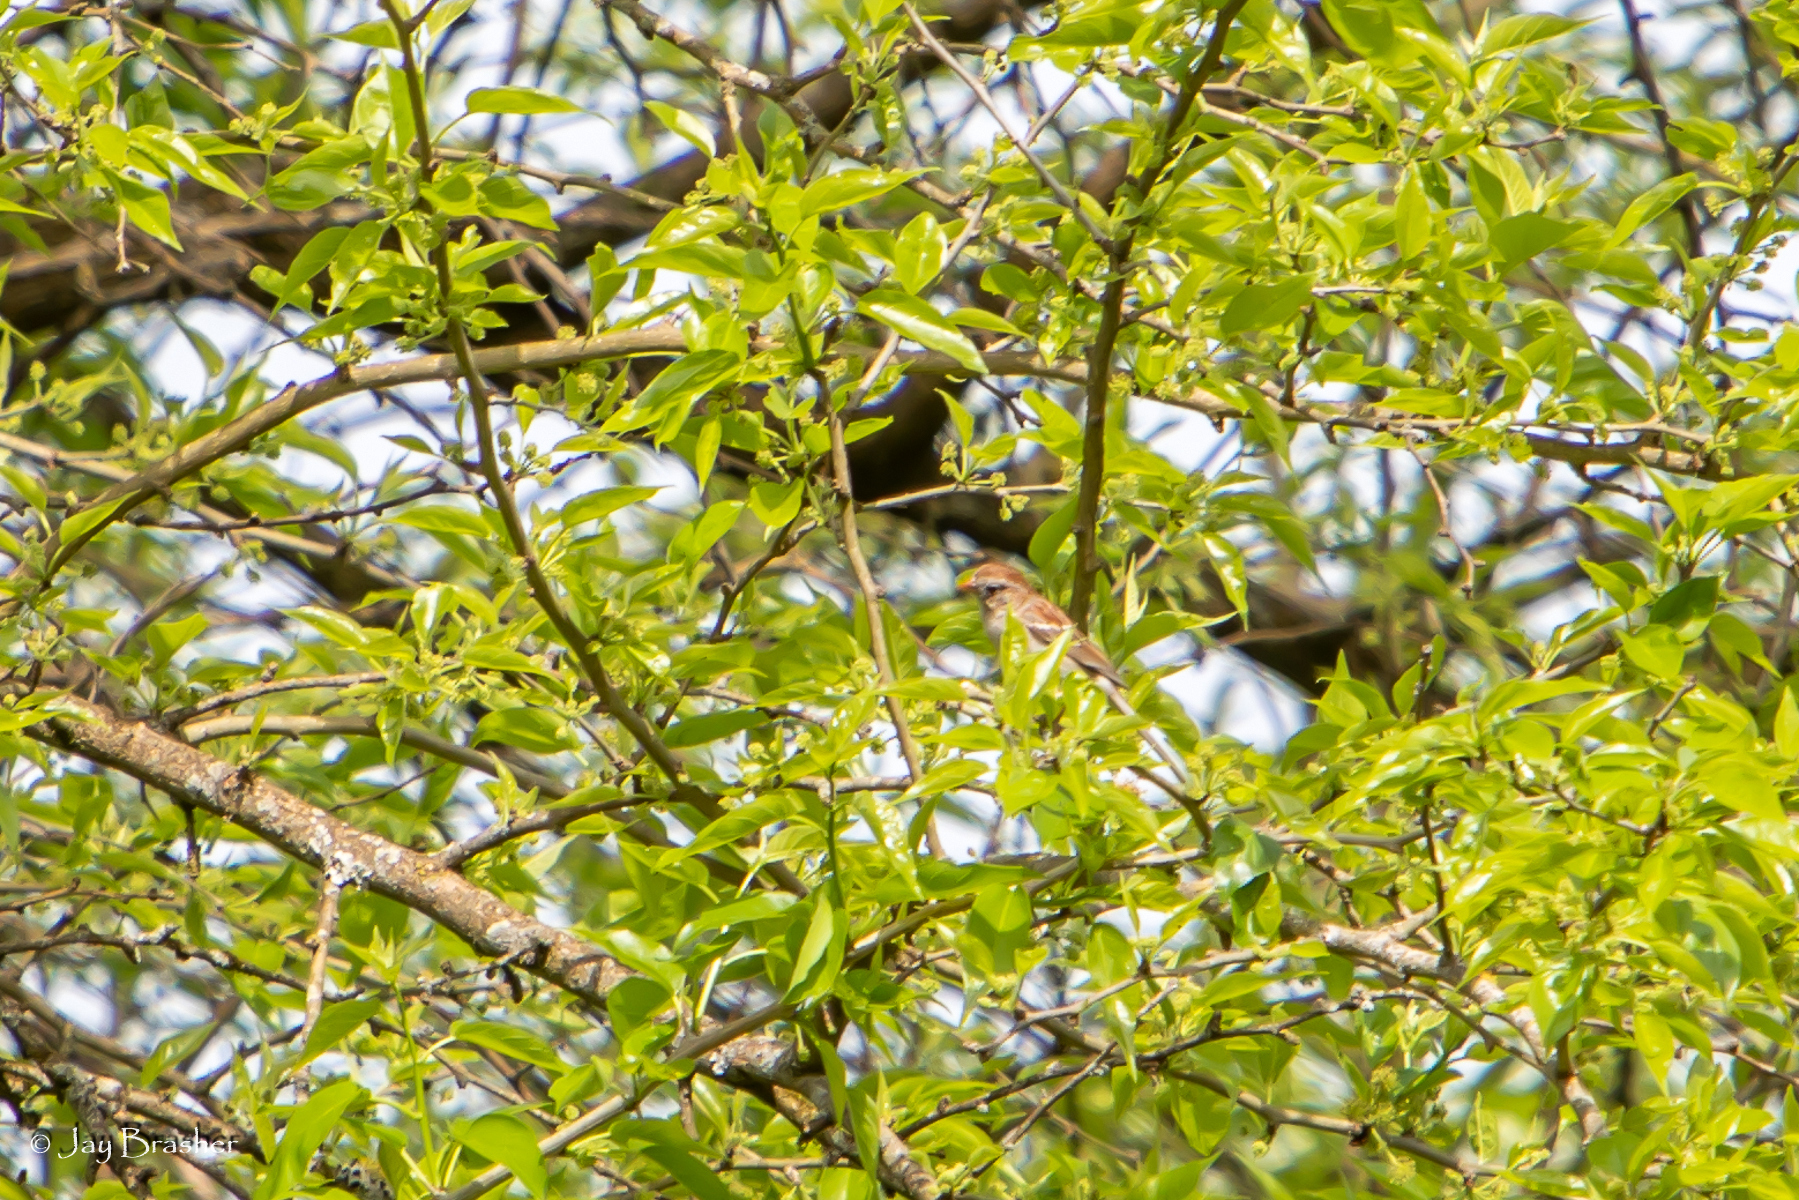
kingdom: Animalia
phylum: Chordata
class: Aves
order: Passeriformes
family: Passerellidae
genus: Spizella
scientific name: Spizella pusilla
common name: Field sparrow
